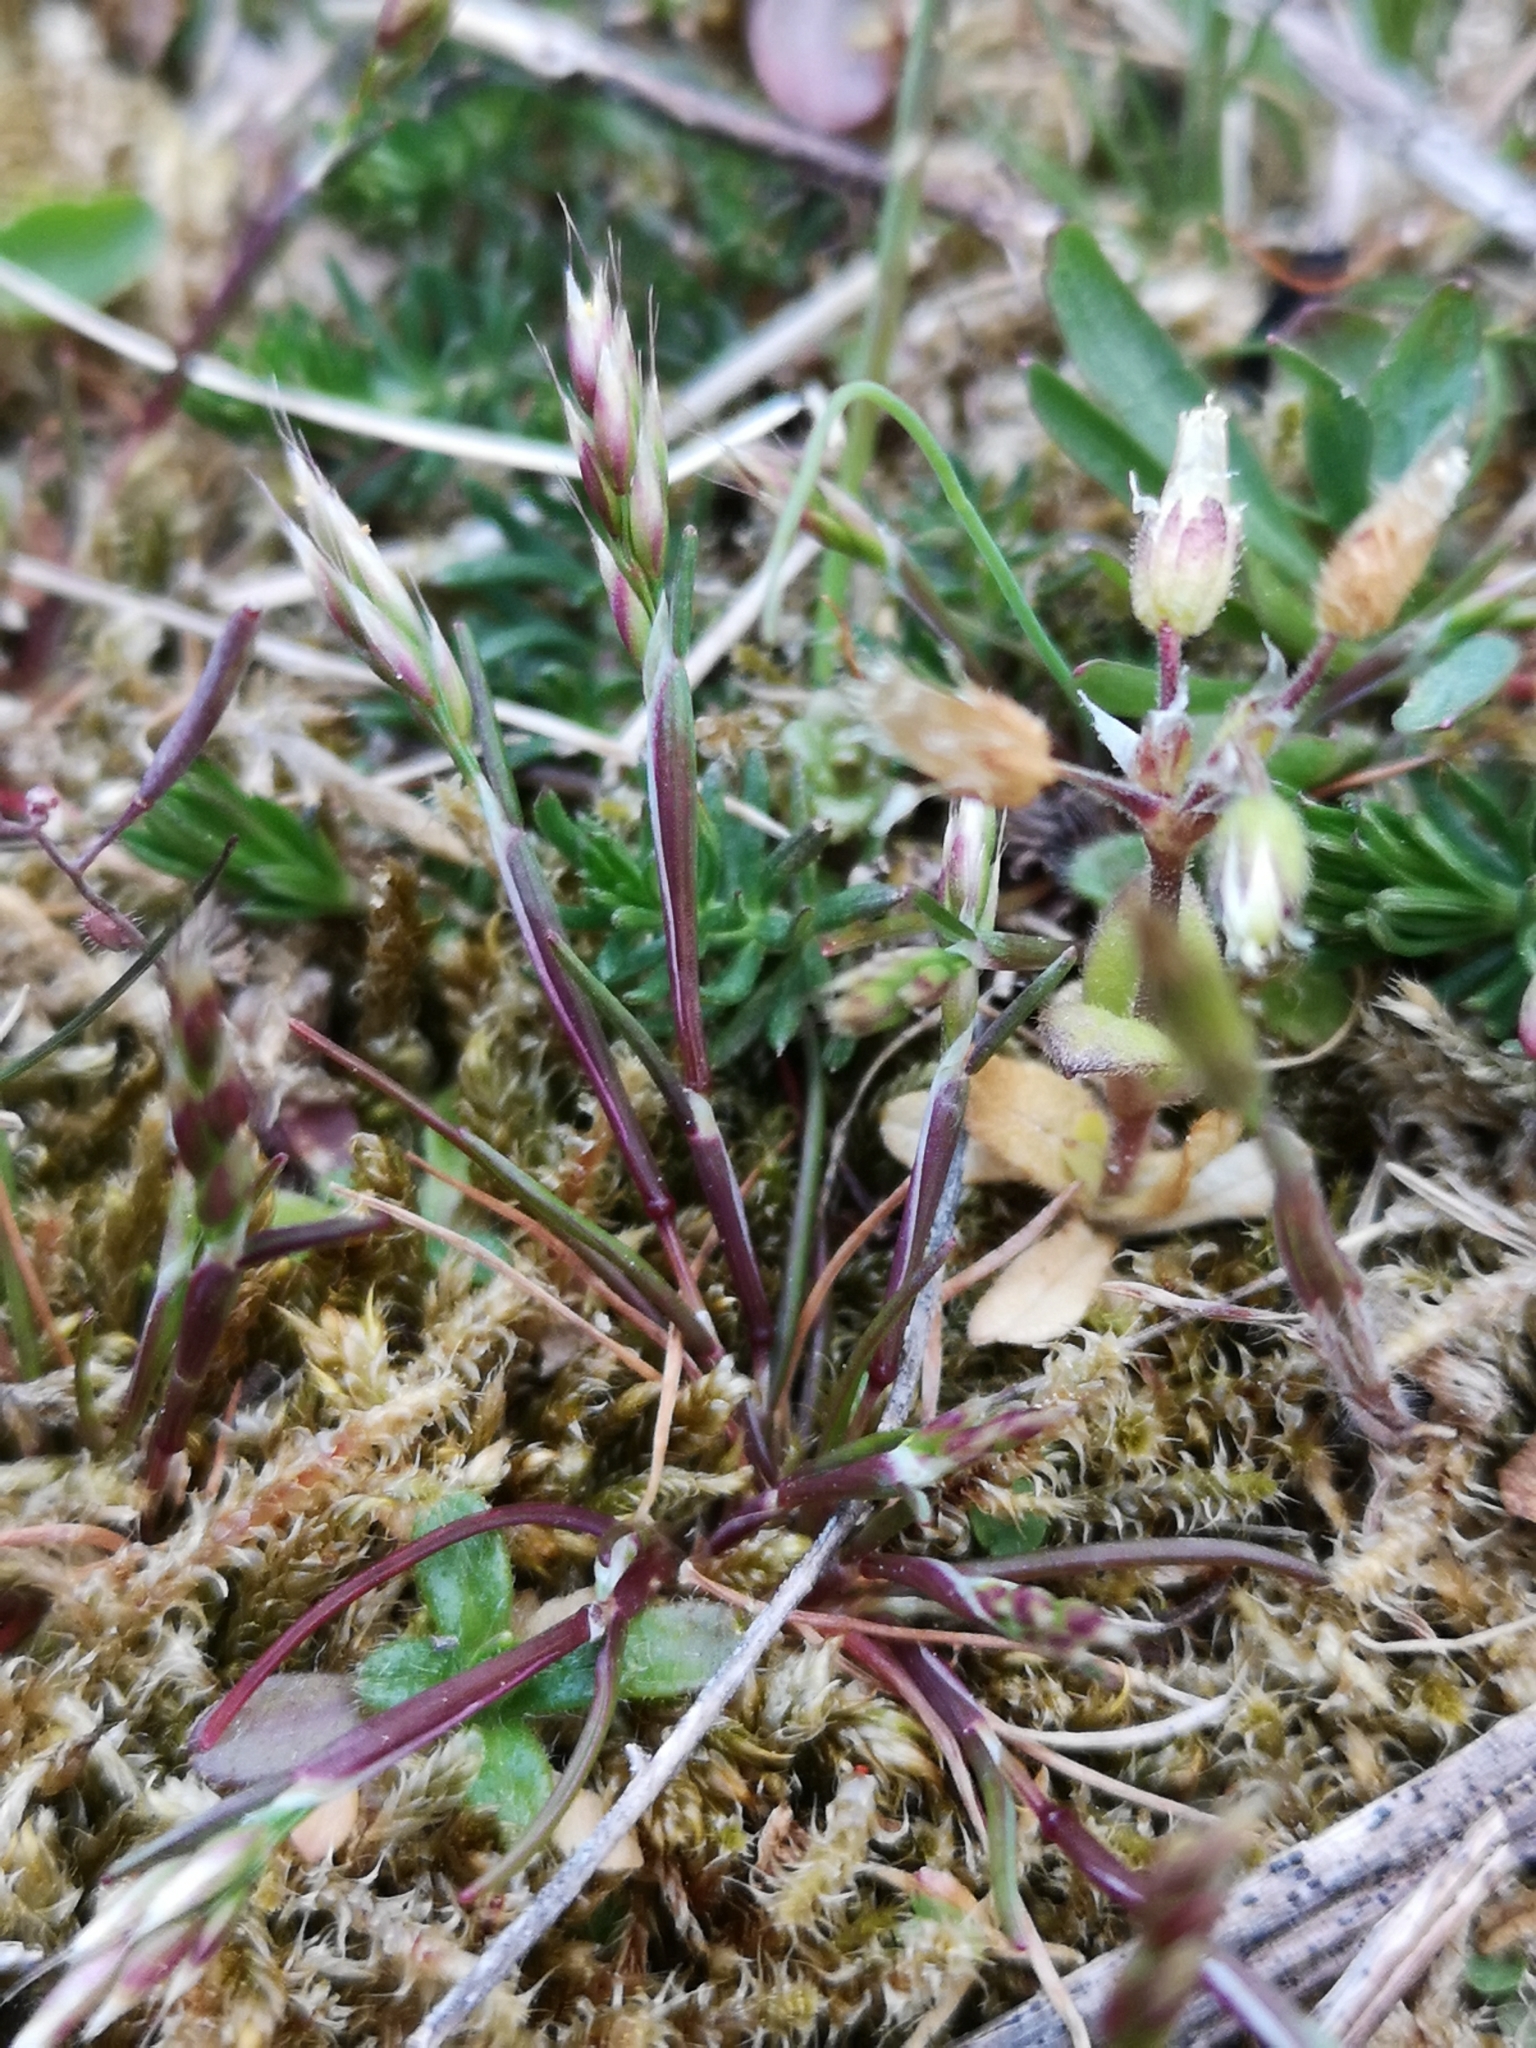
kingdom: Plantae
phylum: Tracheophyta
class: Liliopsida
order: Poales
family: Poaceae
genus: Aira
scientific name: Aira praecox
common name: Early hair-grass
